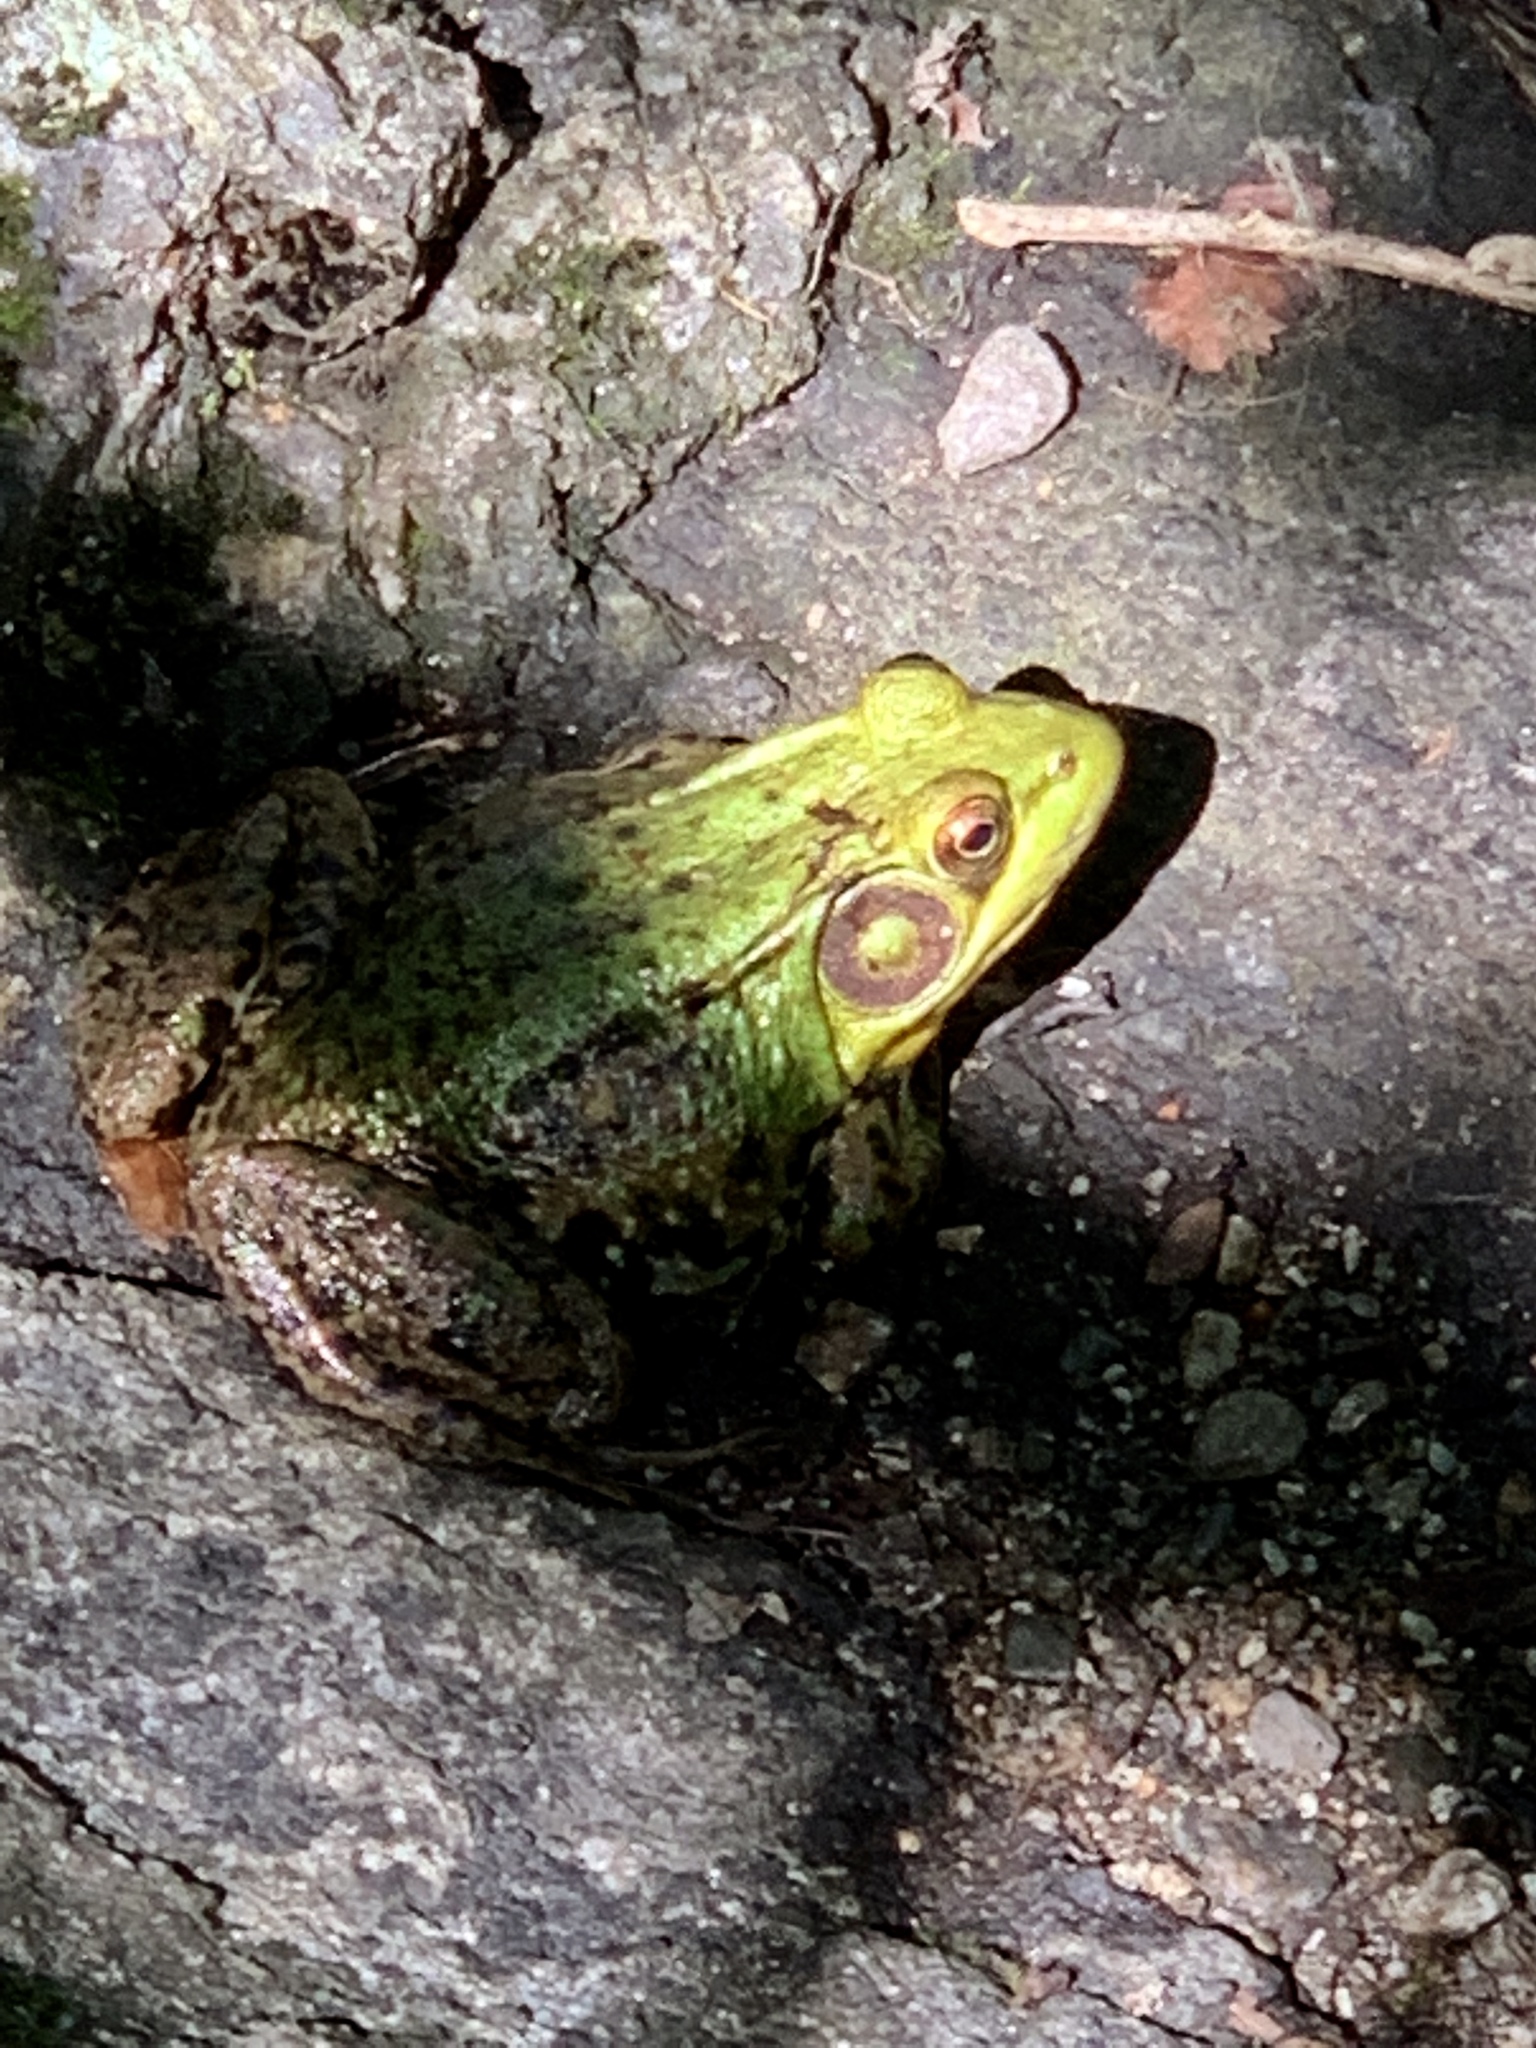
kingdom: Animalia
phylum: Chordata
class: Amphibia
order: Anura
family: Ranidae
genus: Lithobates
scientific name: Lithobates clamitans
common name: Green frog
